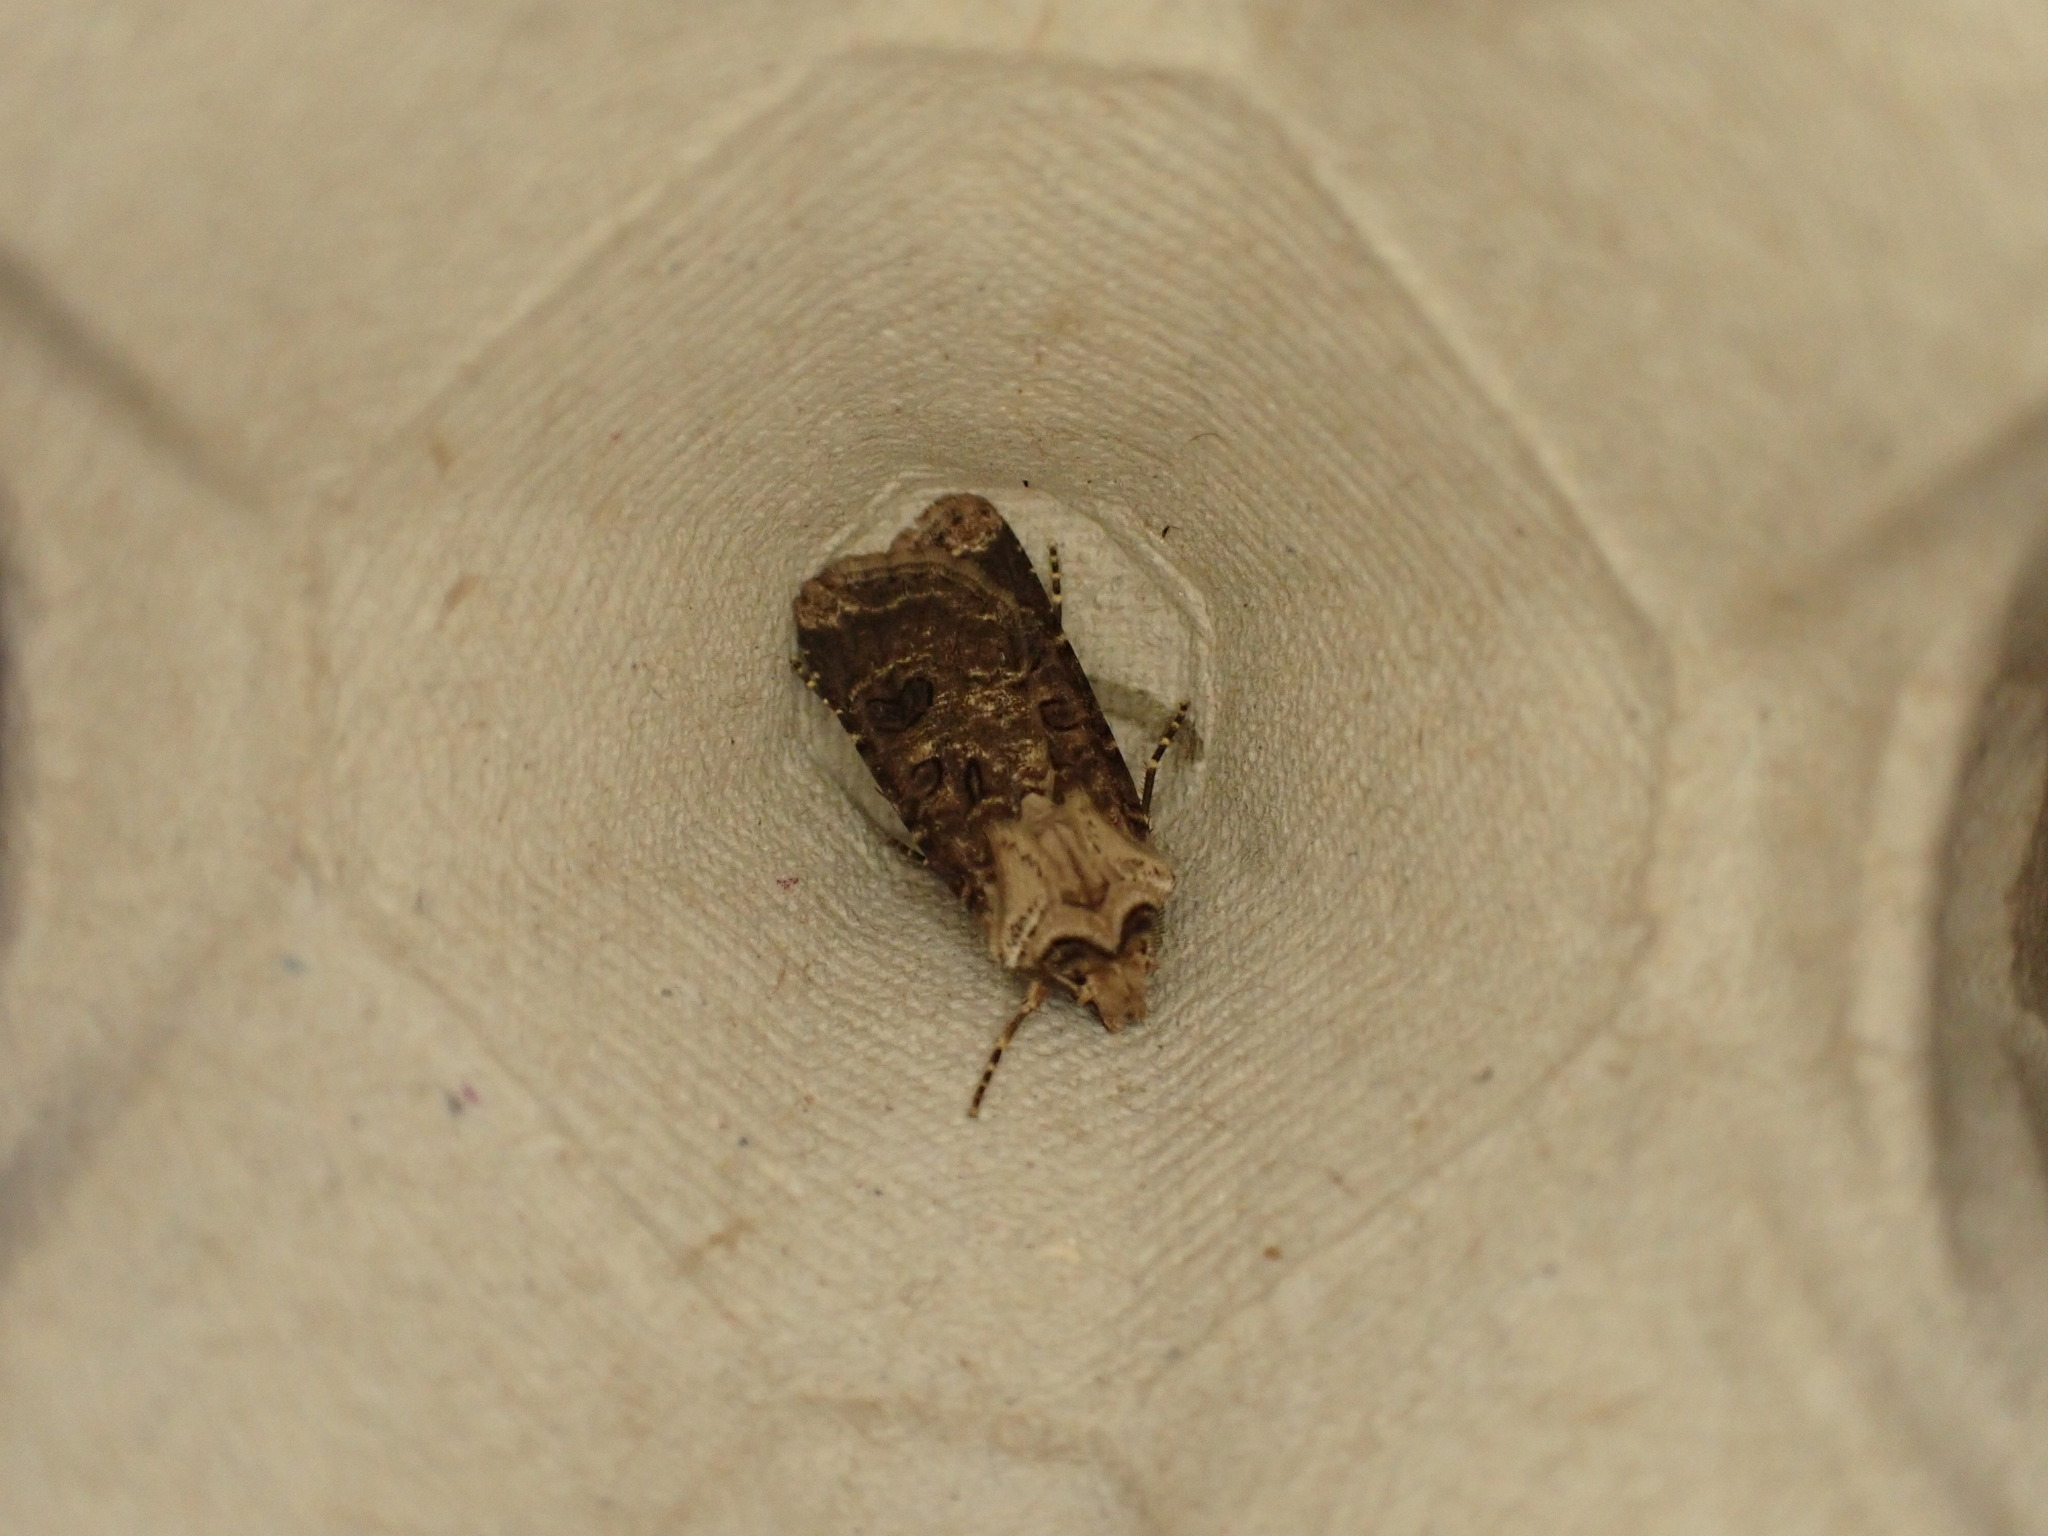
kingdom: Animalia
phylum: Arthropoda
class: Insecta
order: Lepidoptera
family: Noctuidae
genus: Agrotis
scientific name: Agrotis clavis
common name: Heart and club
